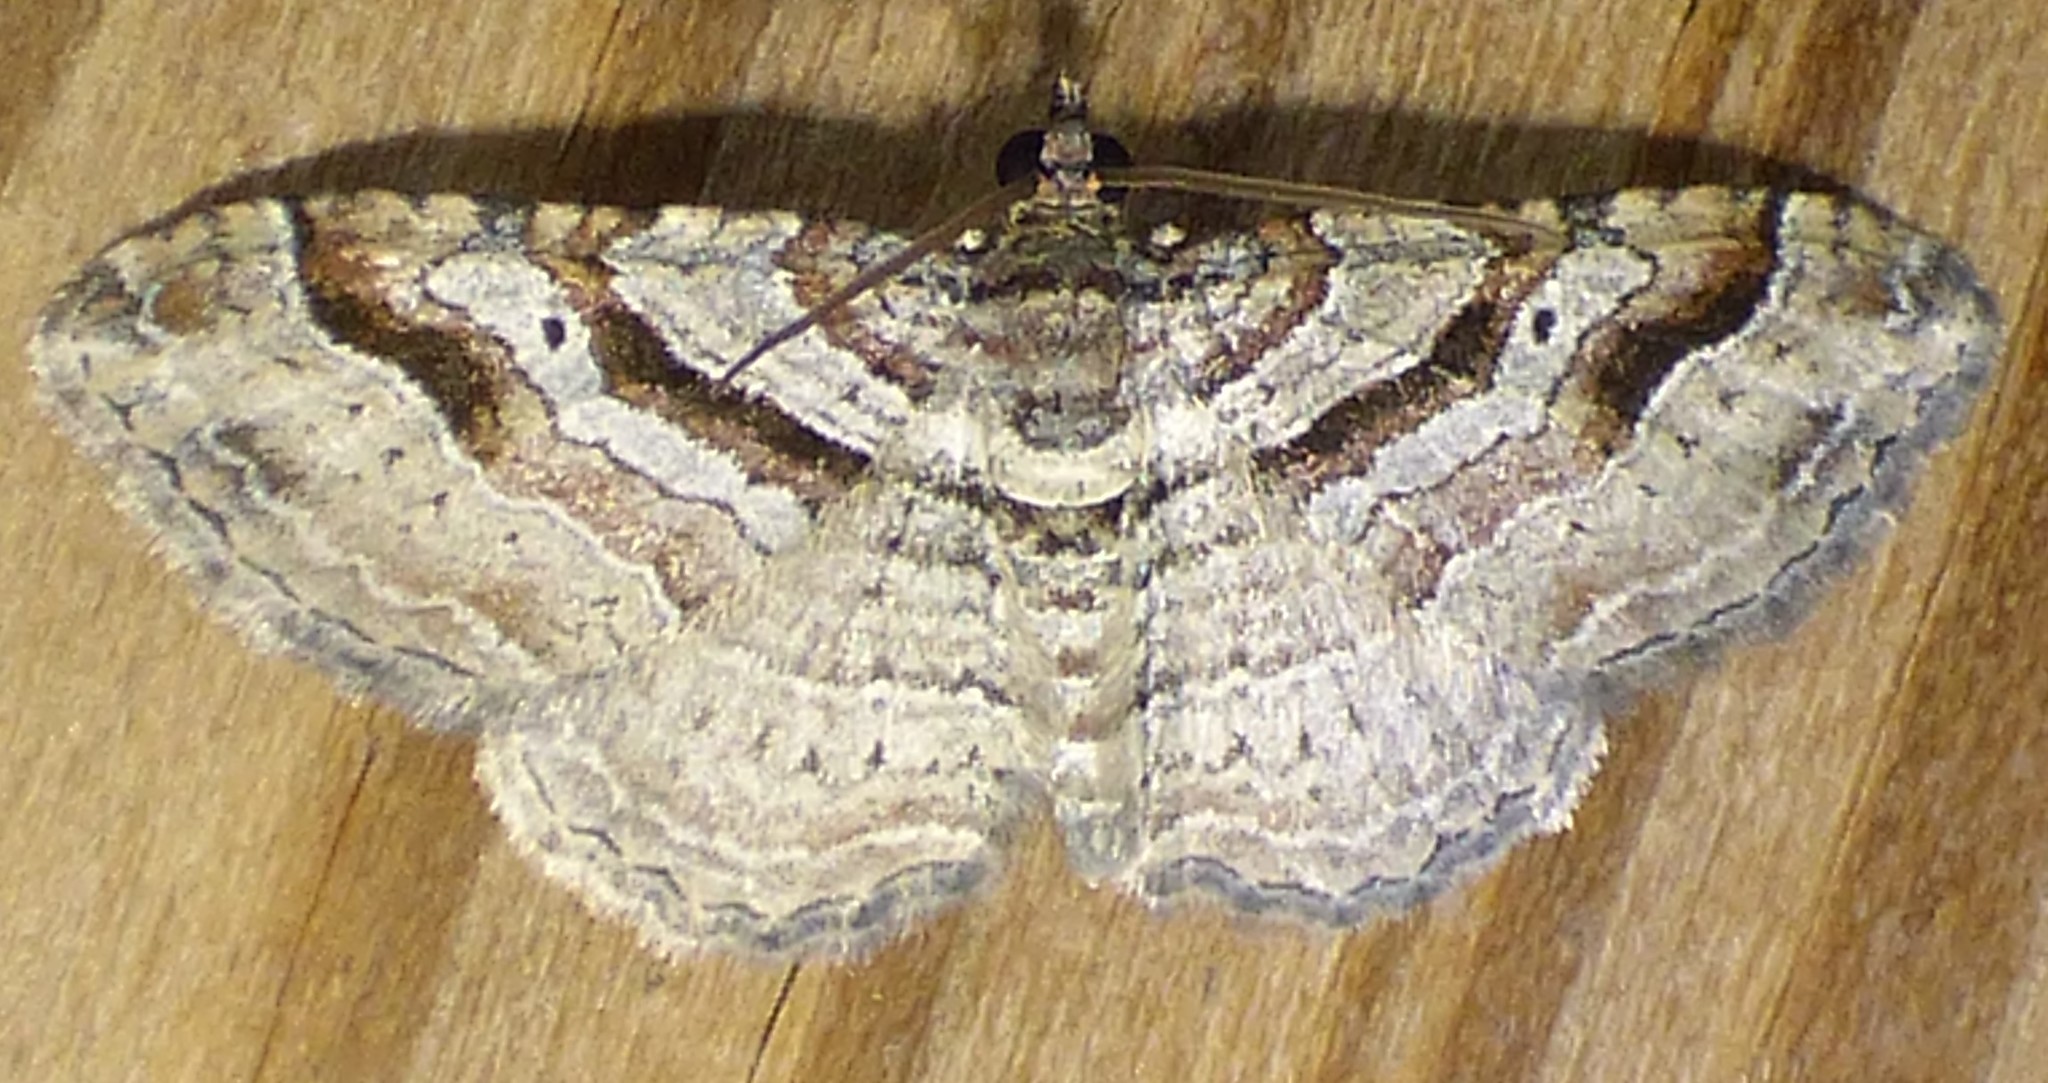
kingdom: Animalia
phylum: Arthropoda
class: Insecta
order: Lepidoptera
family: Geometridae
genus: Costaconvexa
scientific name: Costaconvexa centrostrigaria
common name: Bent-line carpet
